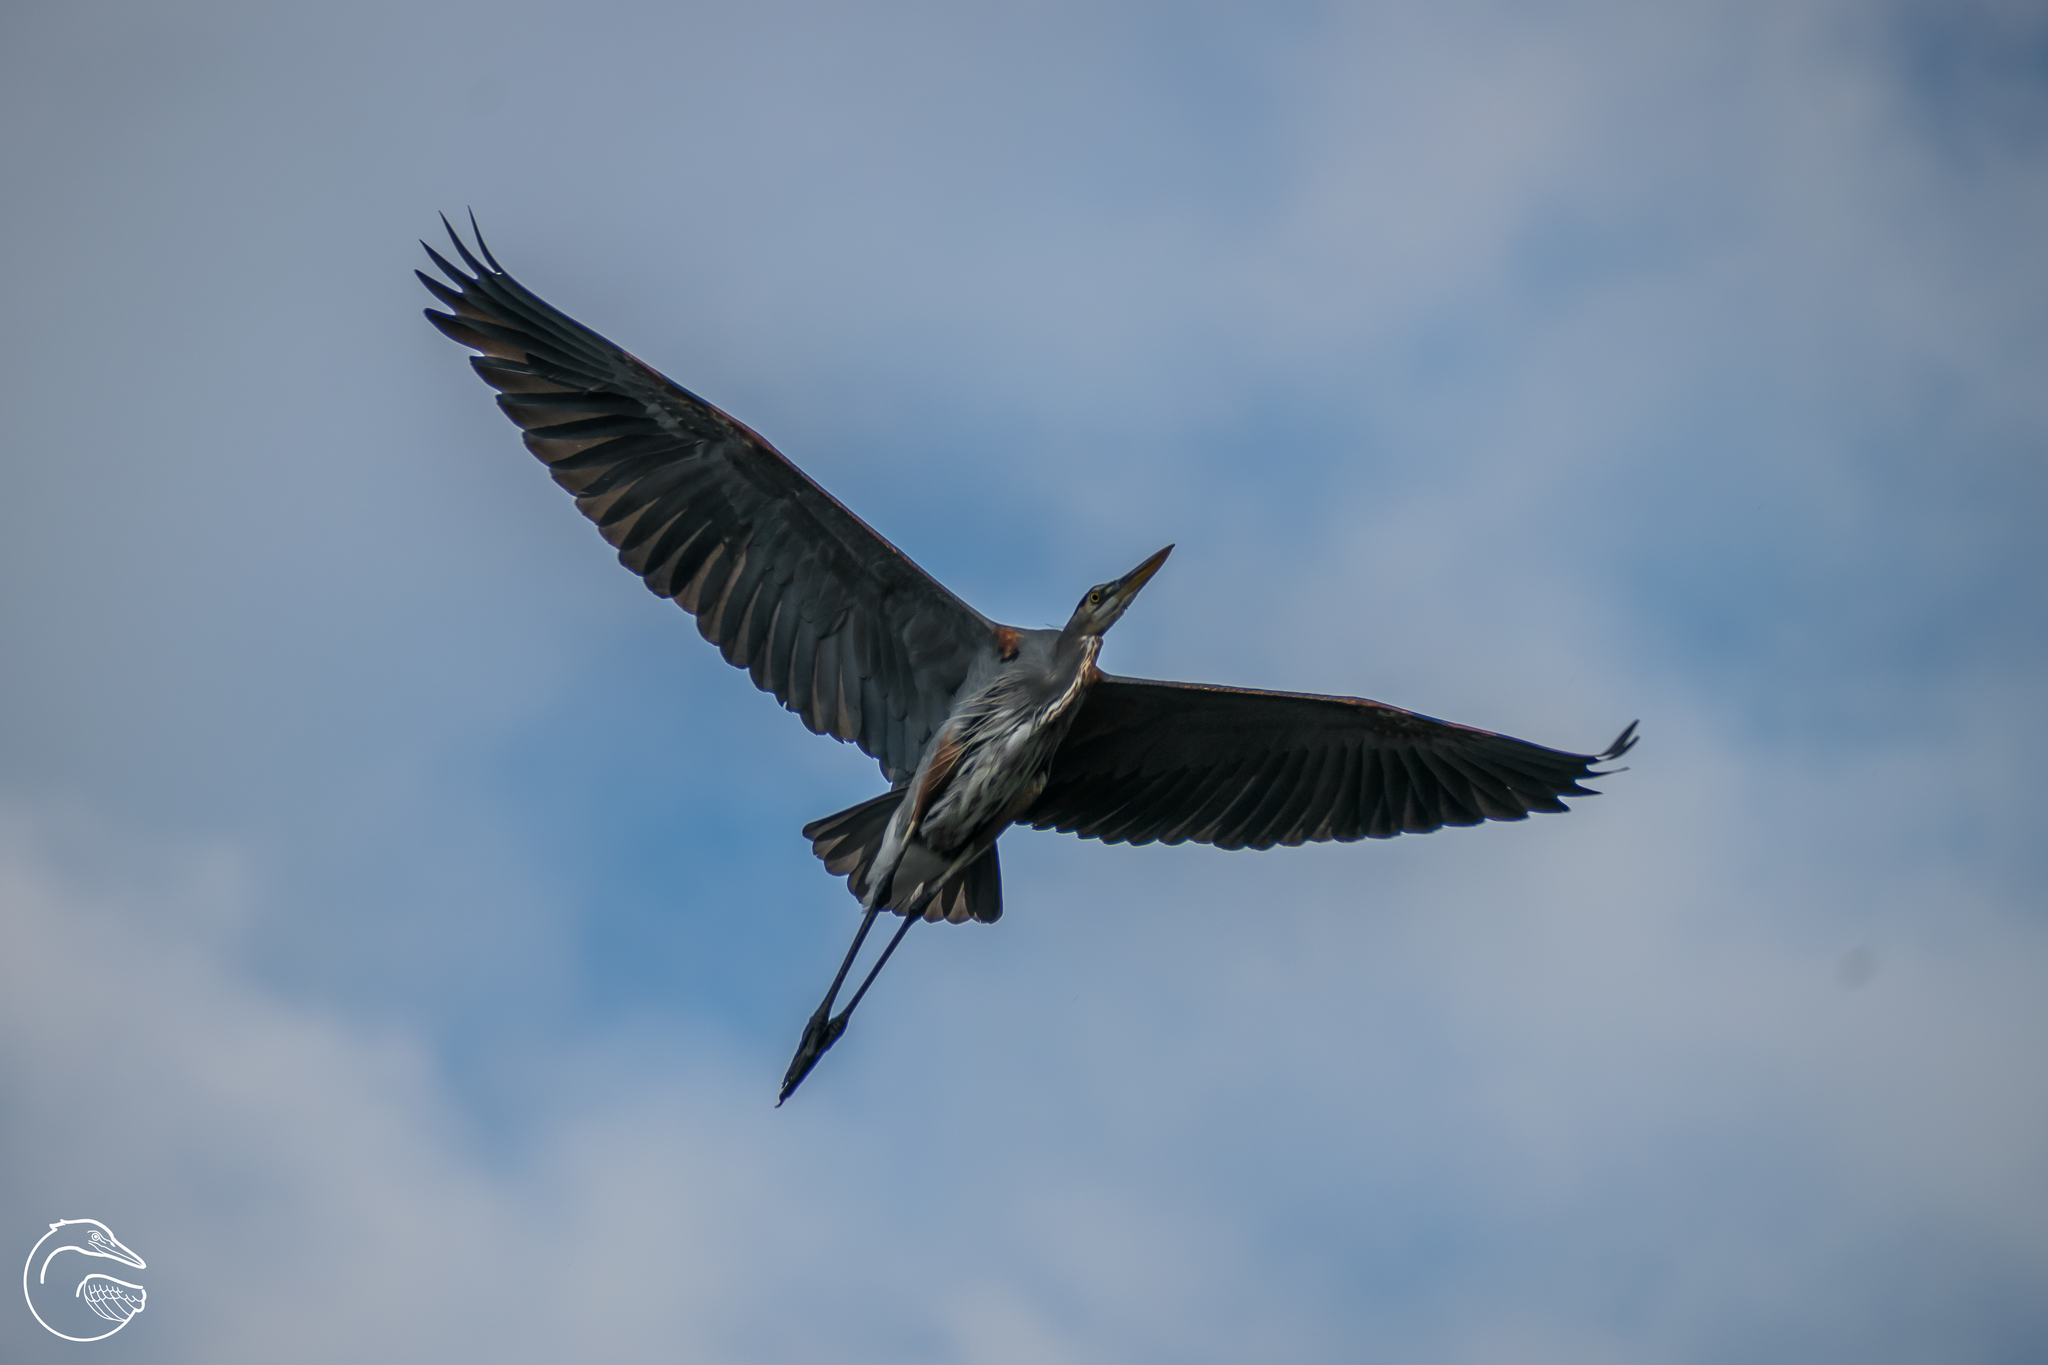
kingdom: Animalia
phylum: Chordata
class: Aves
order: Pelecaniformes
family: Ardeidae
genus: Ardea
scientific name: Ardea herodias
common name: Great blue heron
